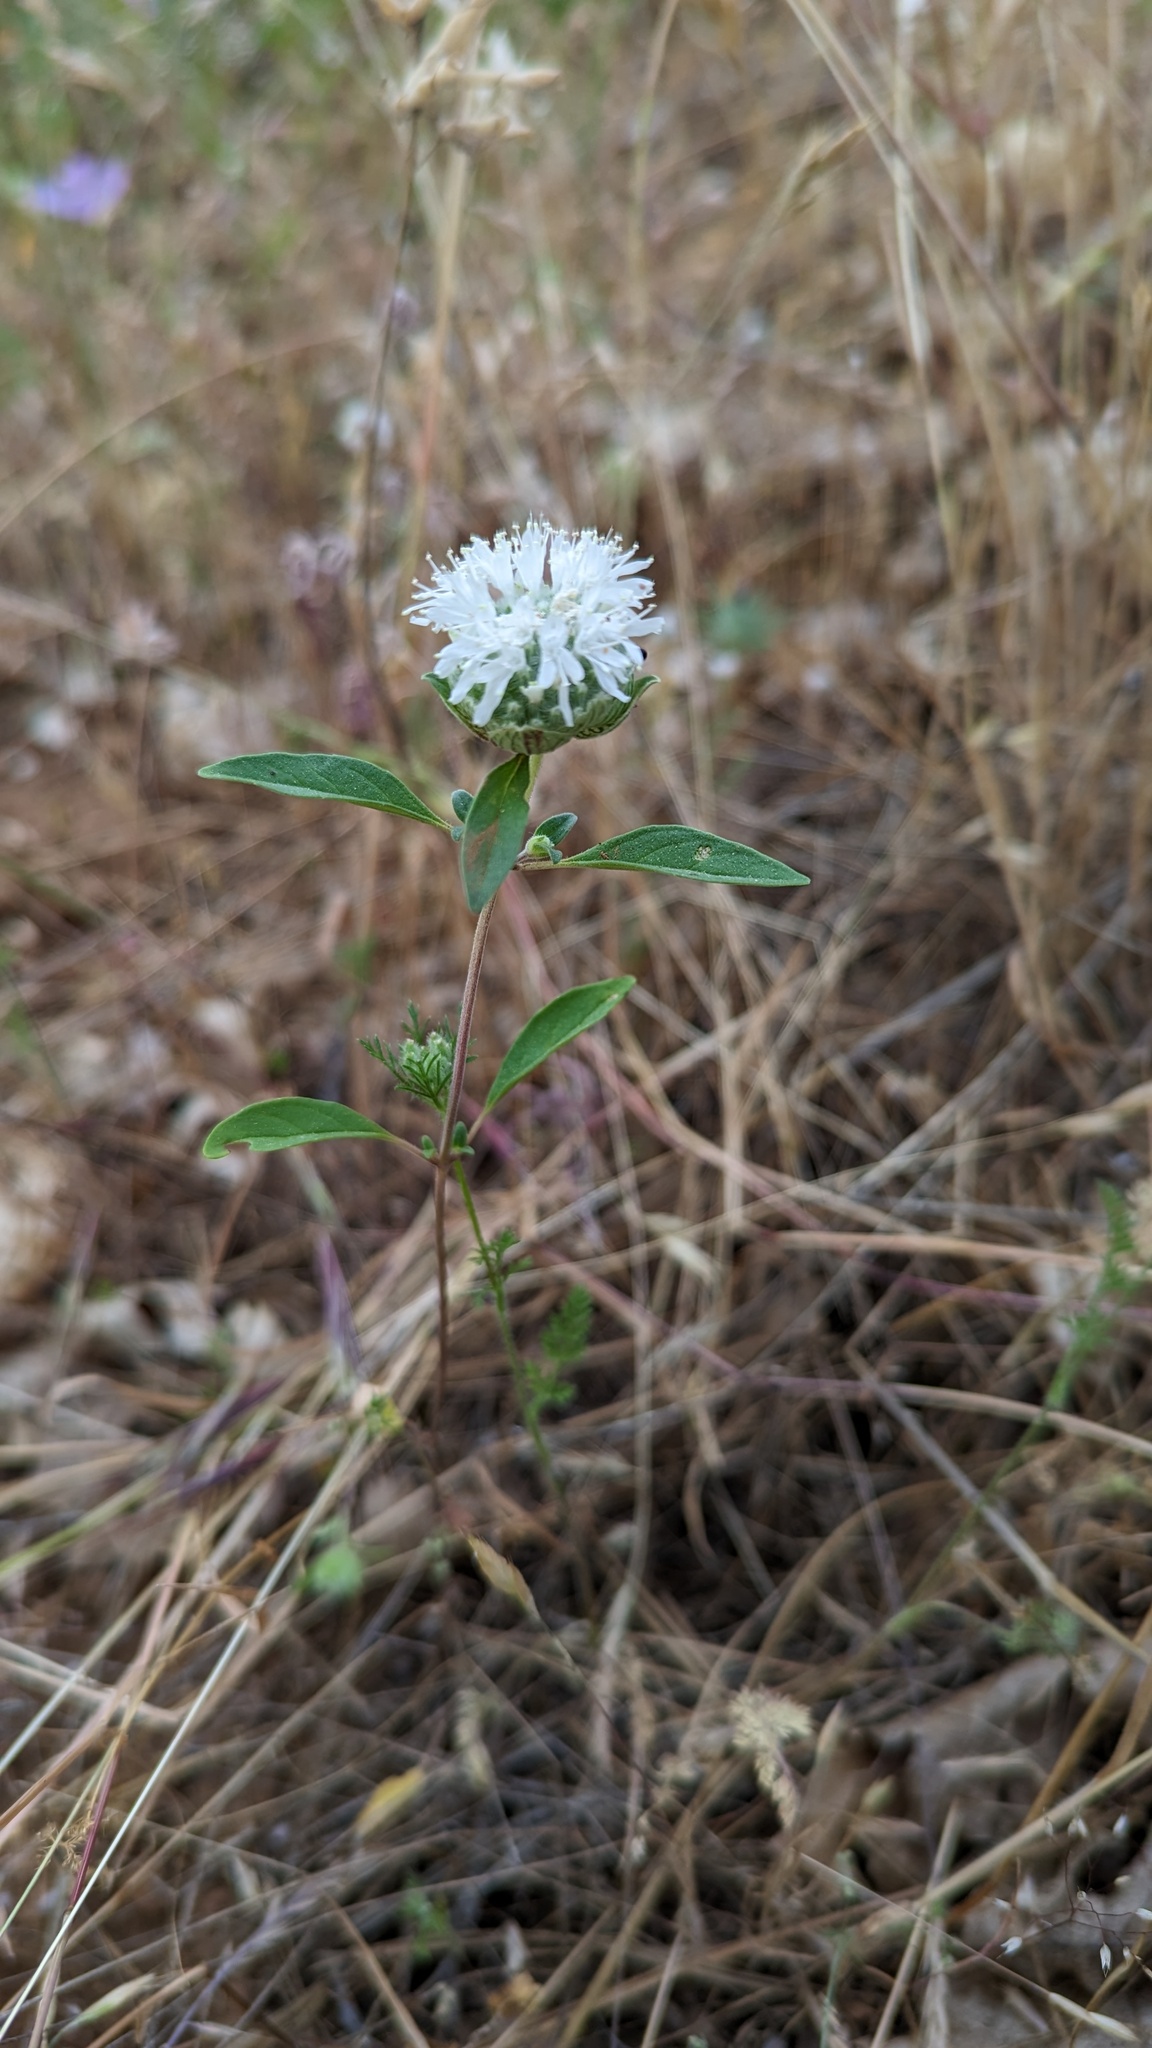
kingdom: Plantae
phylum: Tracheophyta
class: Magnoliopsida
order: Lamiales
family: Lamiaceae
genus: Monardella
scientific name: Monardella candicans
